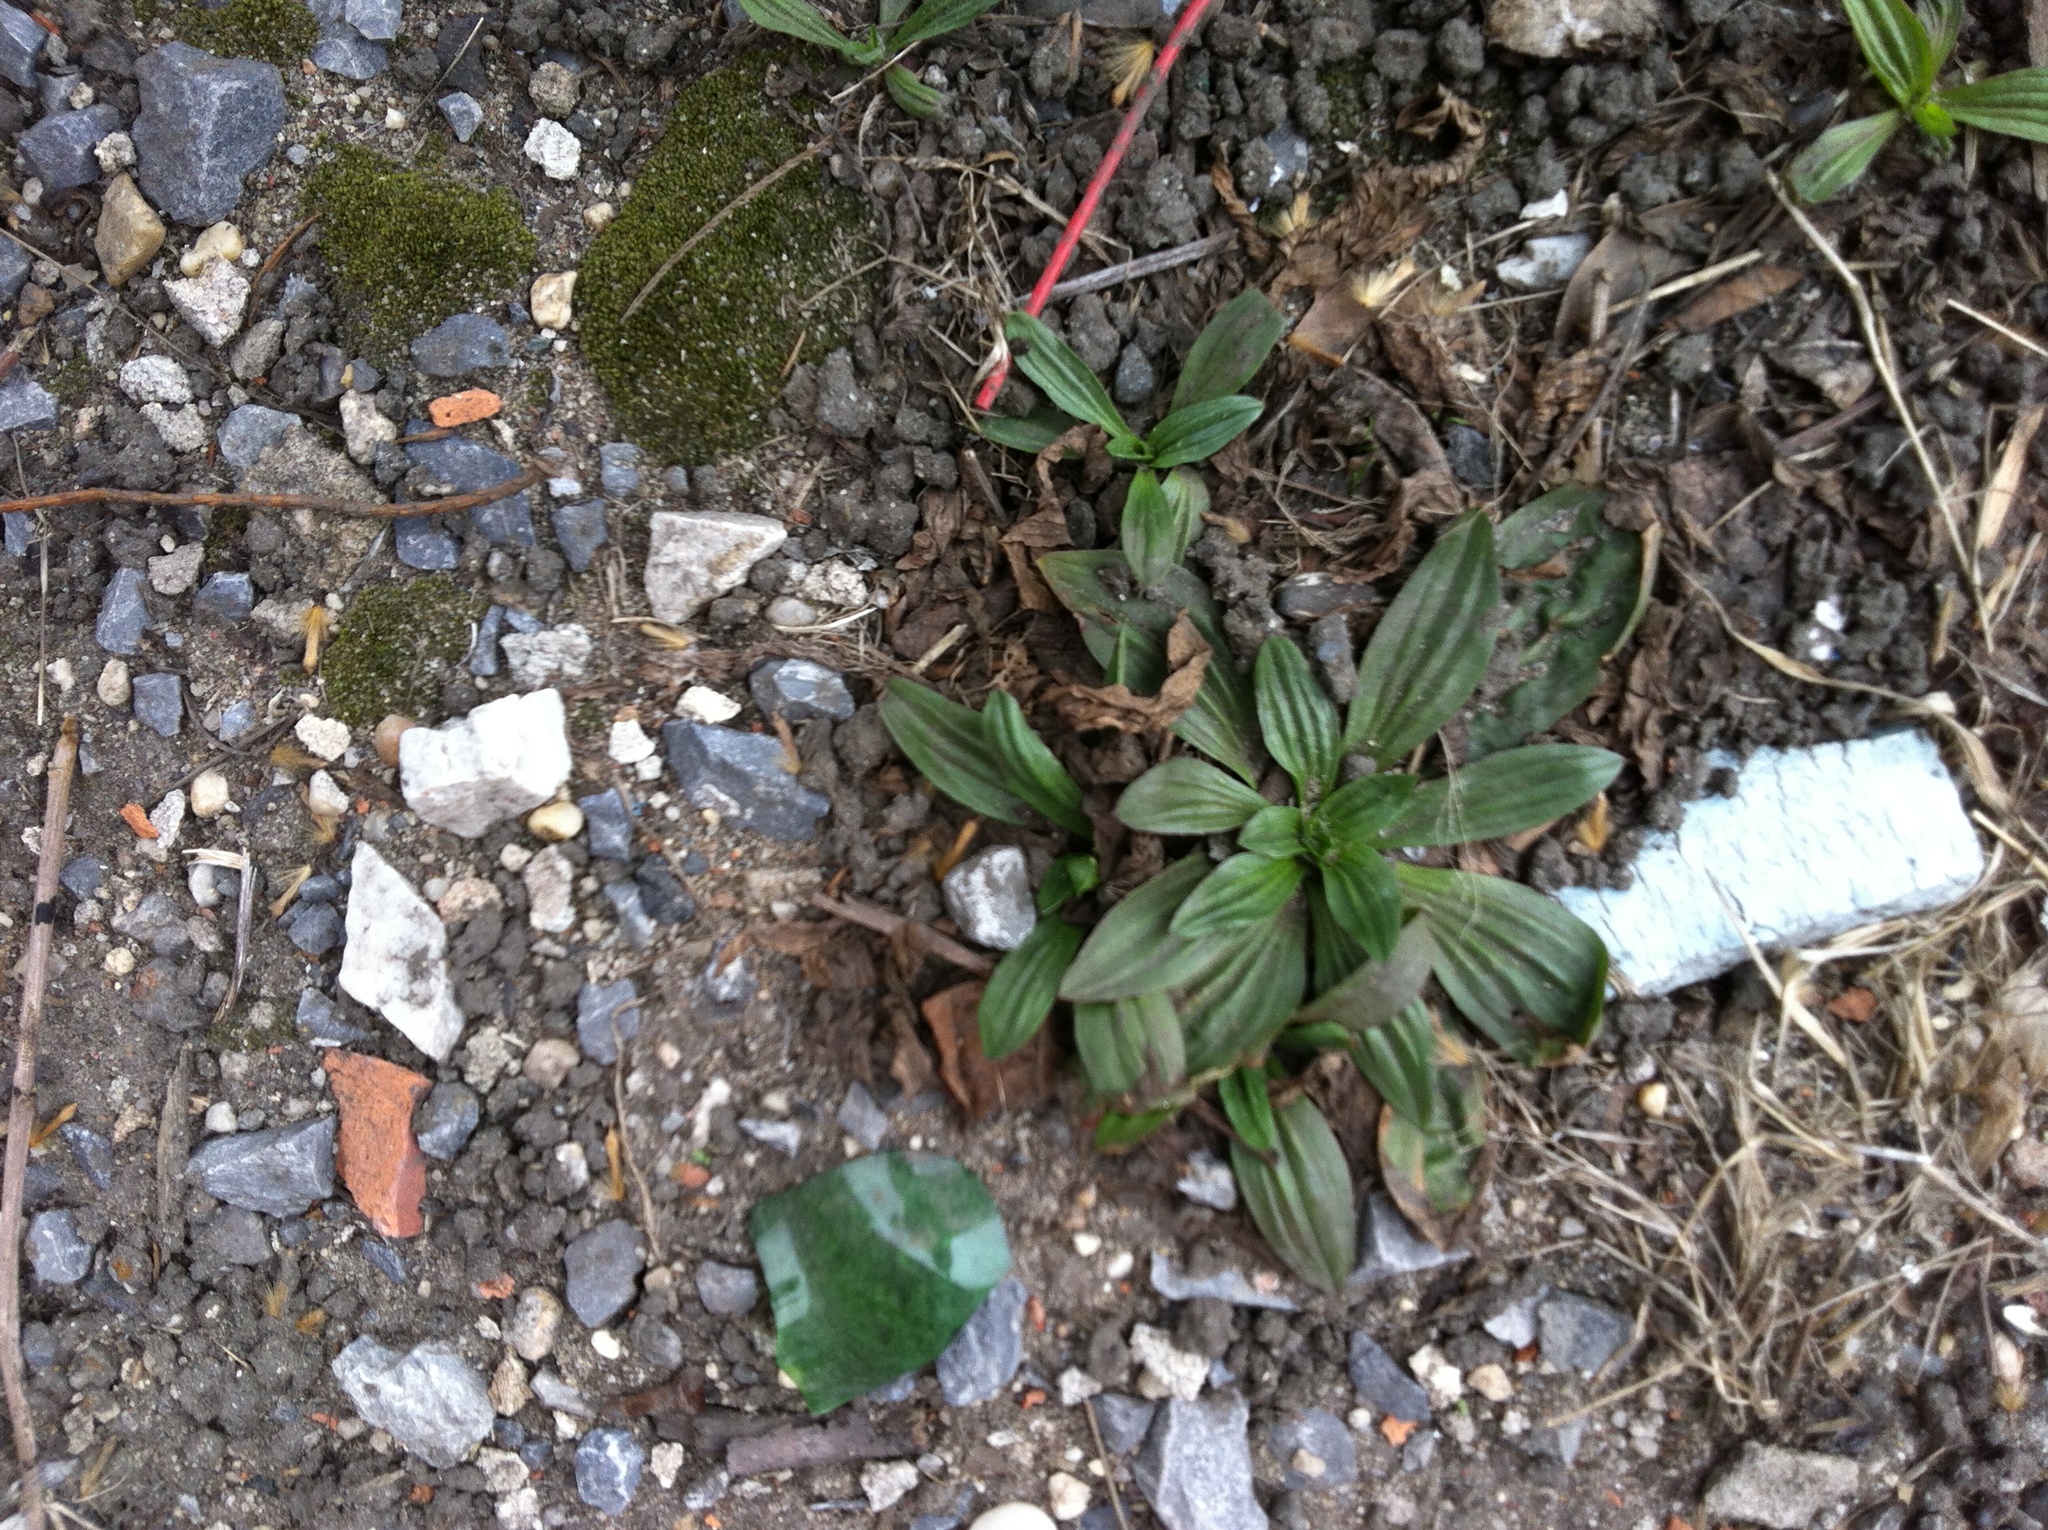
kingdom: Plantae
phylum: Tracheophyta
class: Magnoliopsida
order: Lamiales
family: Plantaginaceae
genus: Plantago
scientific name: Plantago lanceolata
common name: Ribwort plantain
